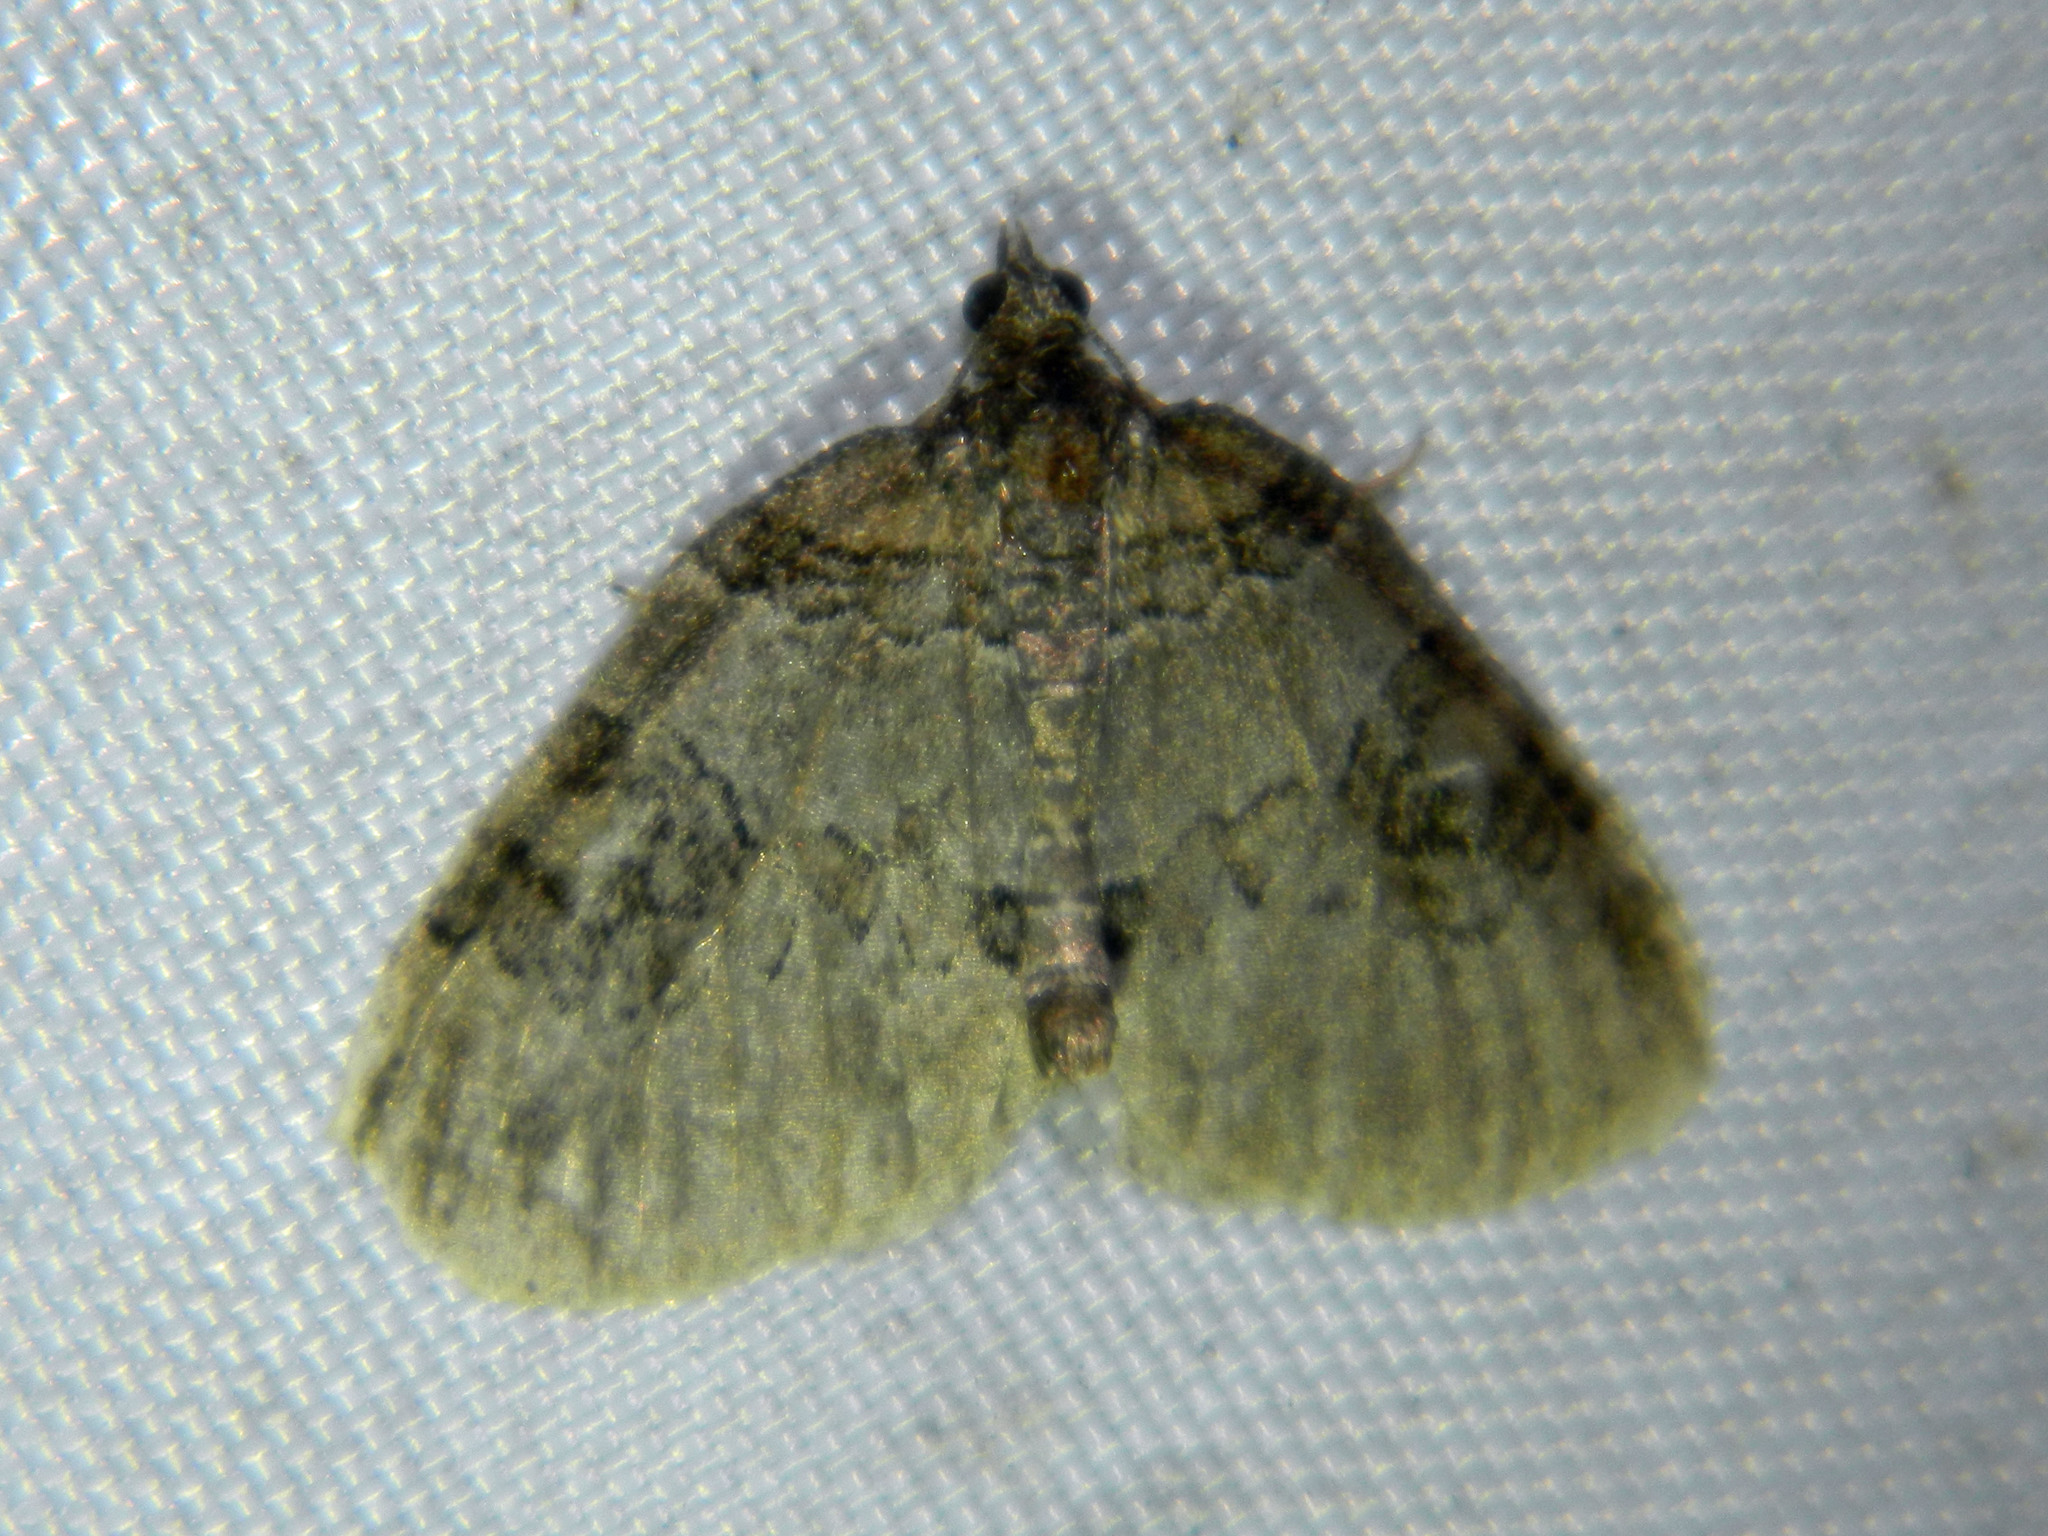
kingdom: Animalia
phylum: Arthropoda
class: Insecta
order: Lepidoptera
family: Geometridae
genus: Plemyria
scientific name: Plemyria georgii
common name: George's carpet moth
